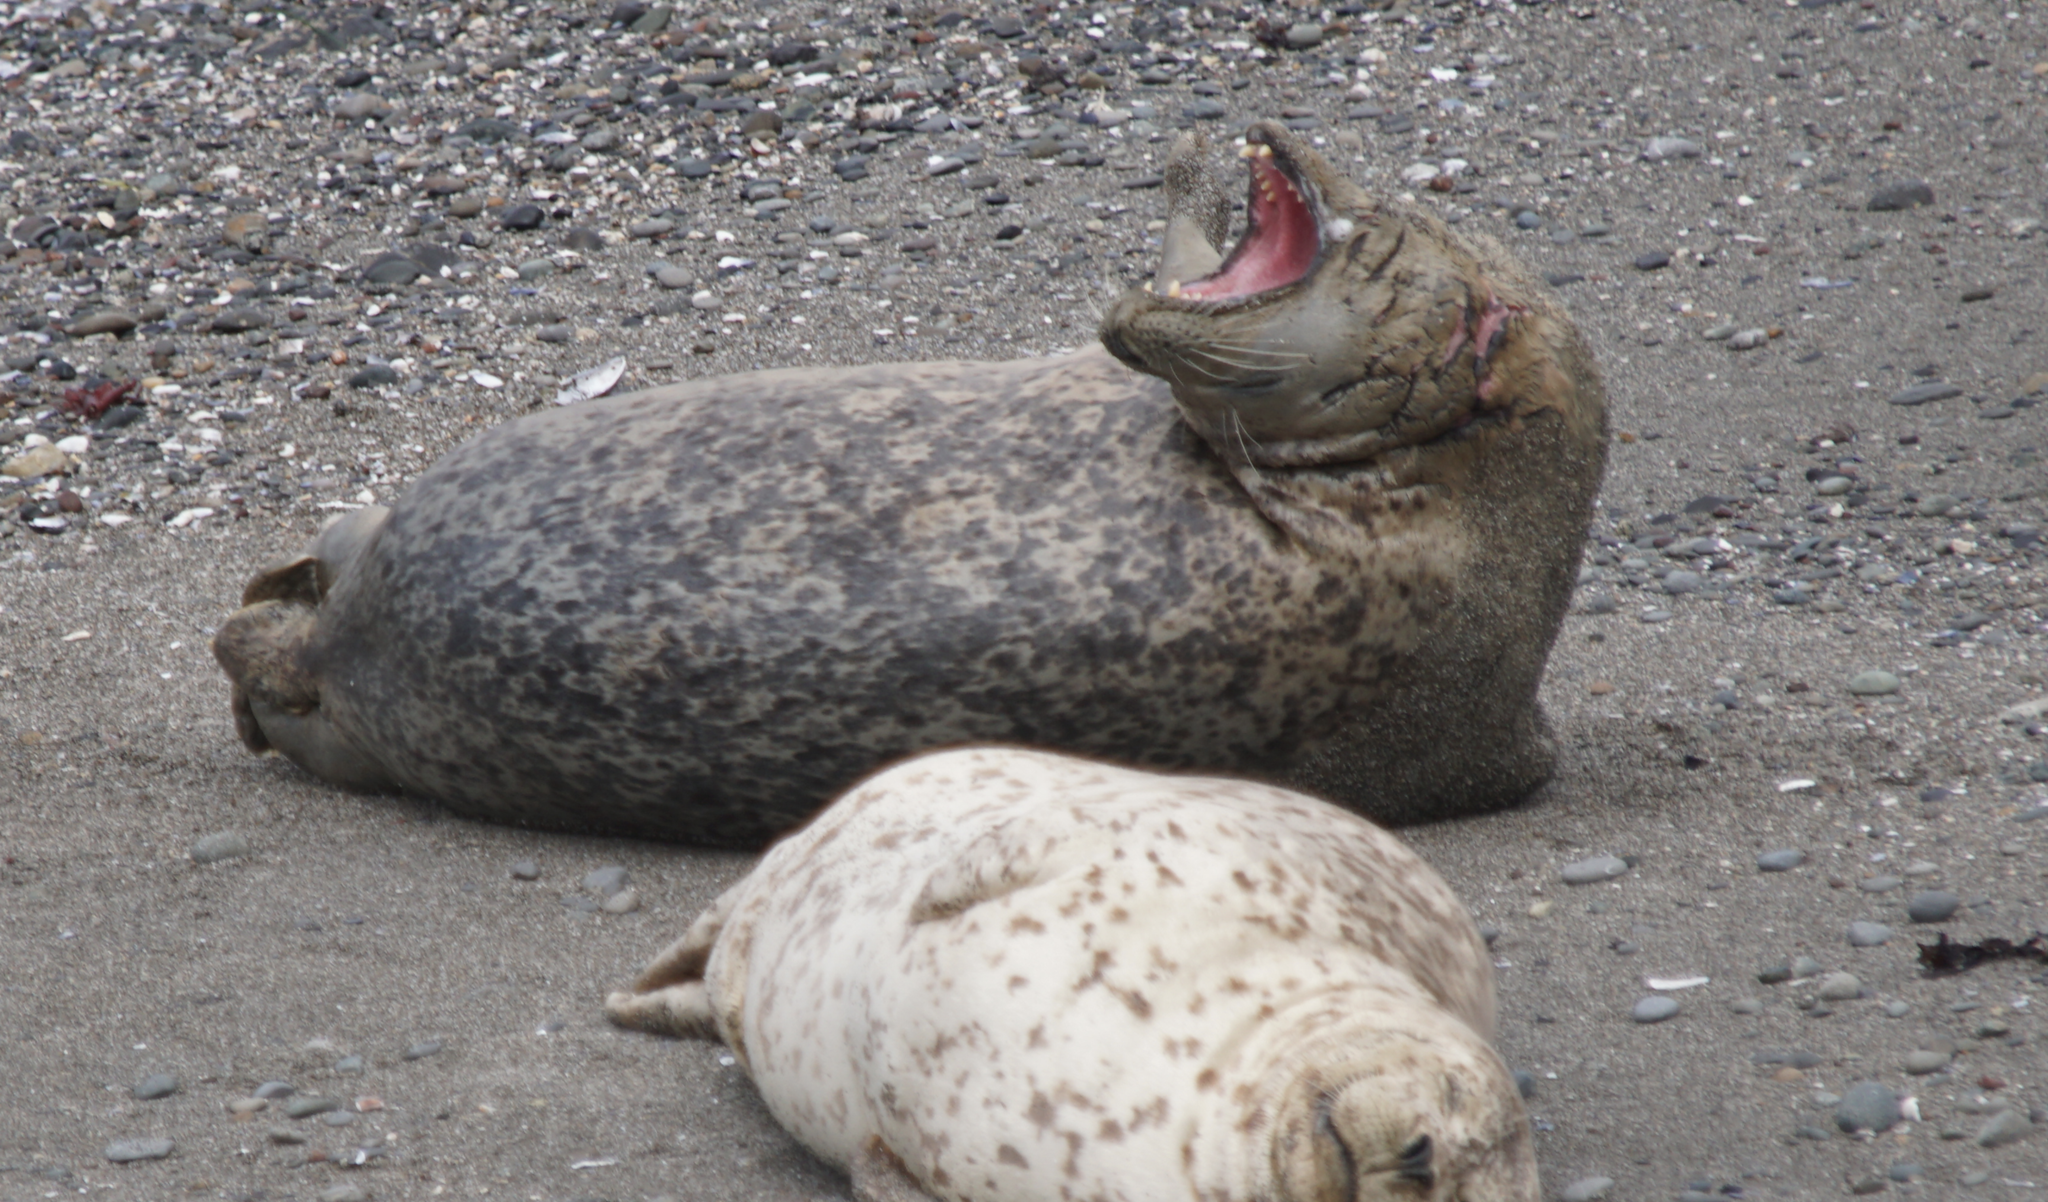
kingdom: Animalia
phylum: Chordata
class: Mammalia
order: Carnivora
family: Phocidae
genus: Phoca
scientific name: Phoca vitulina
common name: Harbor seal
